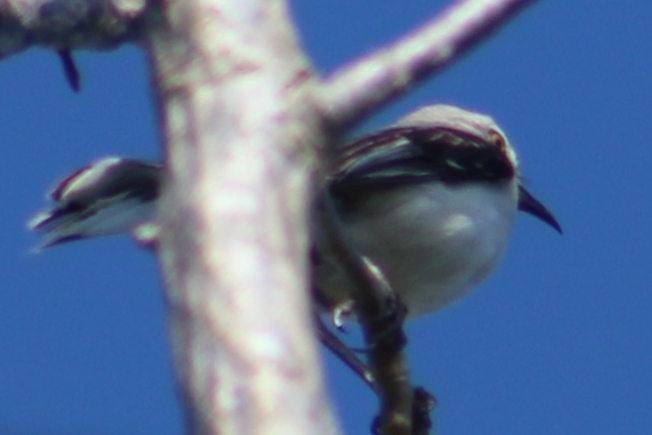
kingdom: Animalia
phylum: Chordata
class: Aves
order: Passeriformes
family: Mimidae
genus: Mimus
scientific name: Mimus gilvus
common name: Tropical mockingbird
